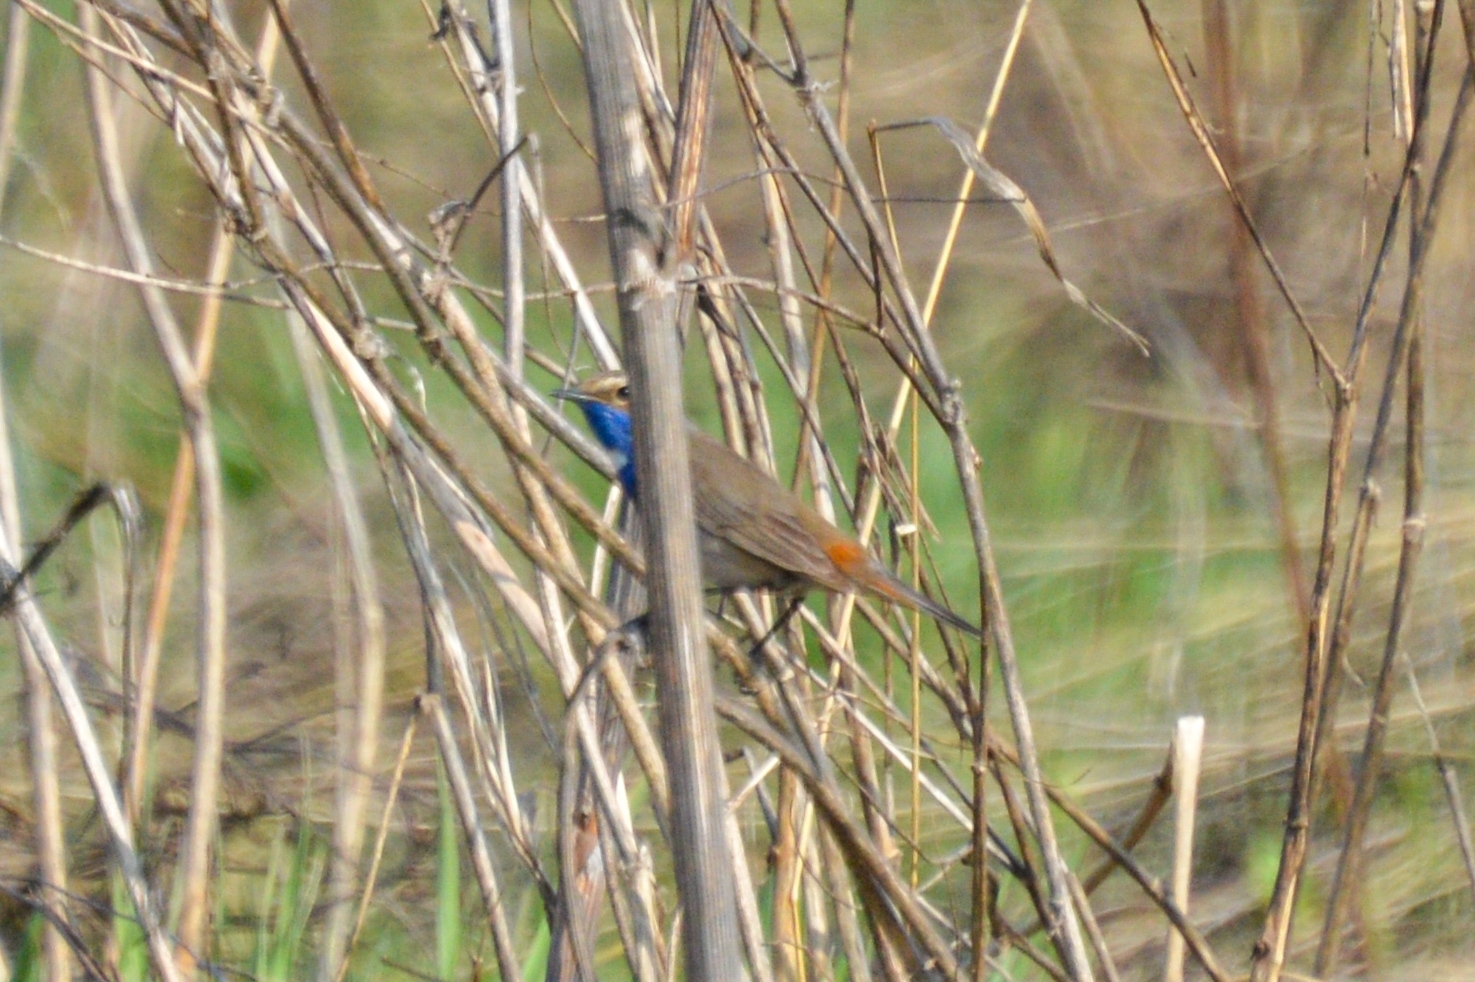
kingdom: Animalia
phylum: Chordata
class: Aves
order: Passeriformes
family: Muscicapidae
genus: Luscinia
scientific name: Luscinia svecica
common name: Bluethroat
